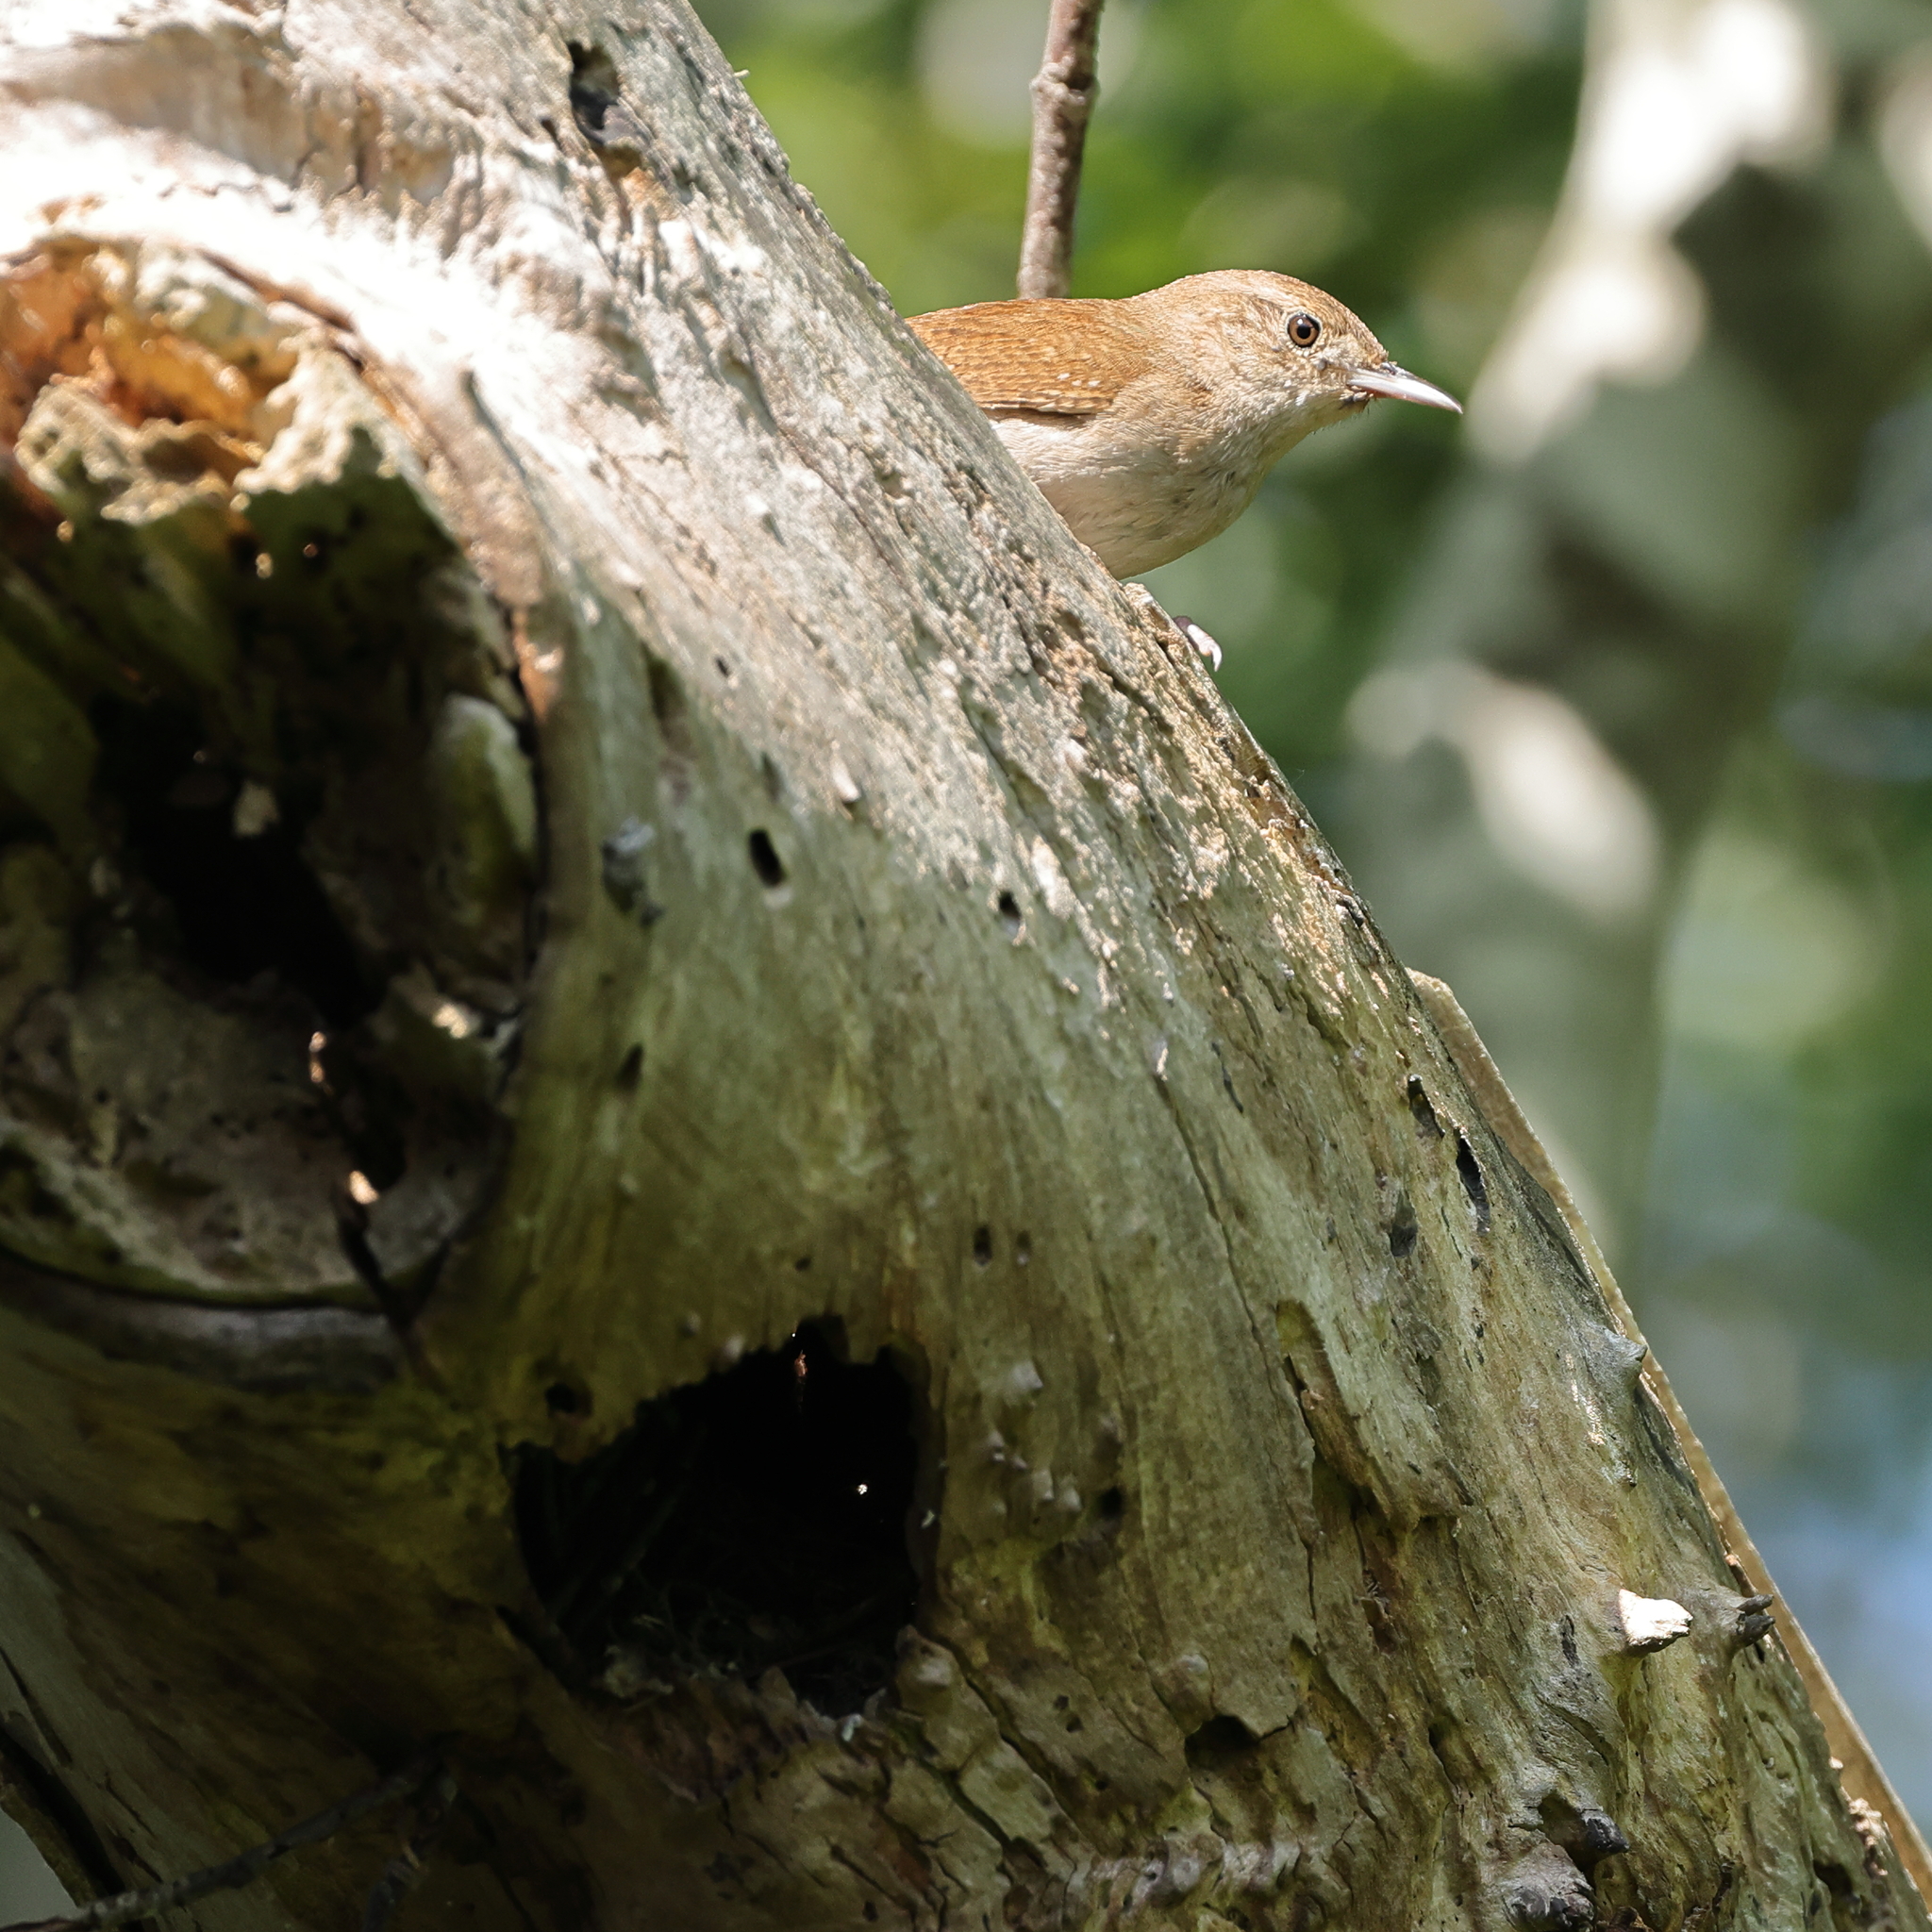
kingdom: Animalia
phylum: Chordata
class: Aves
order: Passeriformes
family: Troglodytidae
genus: Troglodytes
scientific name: Troglodytes aedon
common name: House wren
